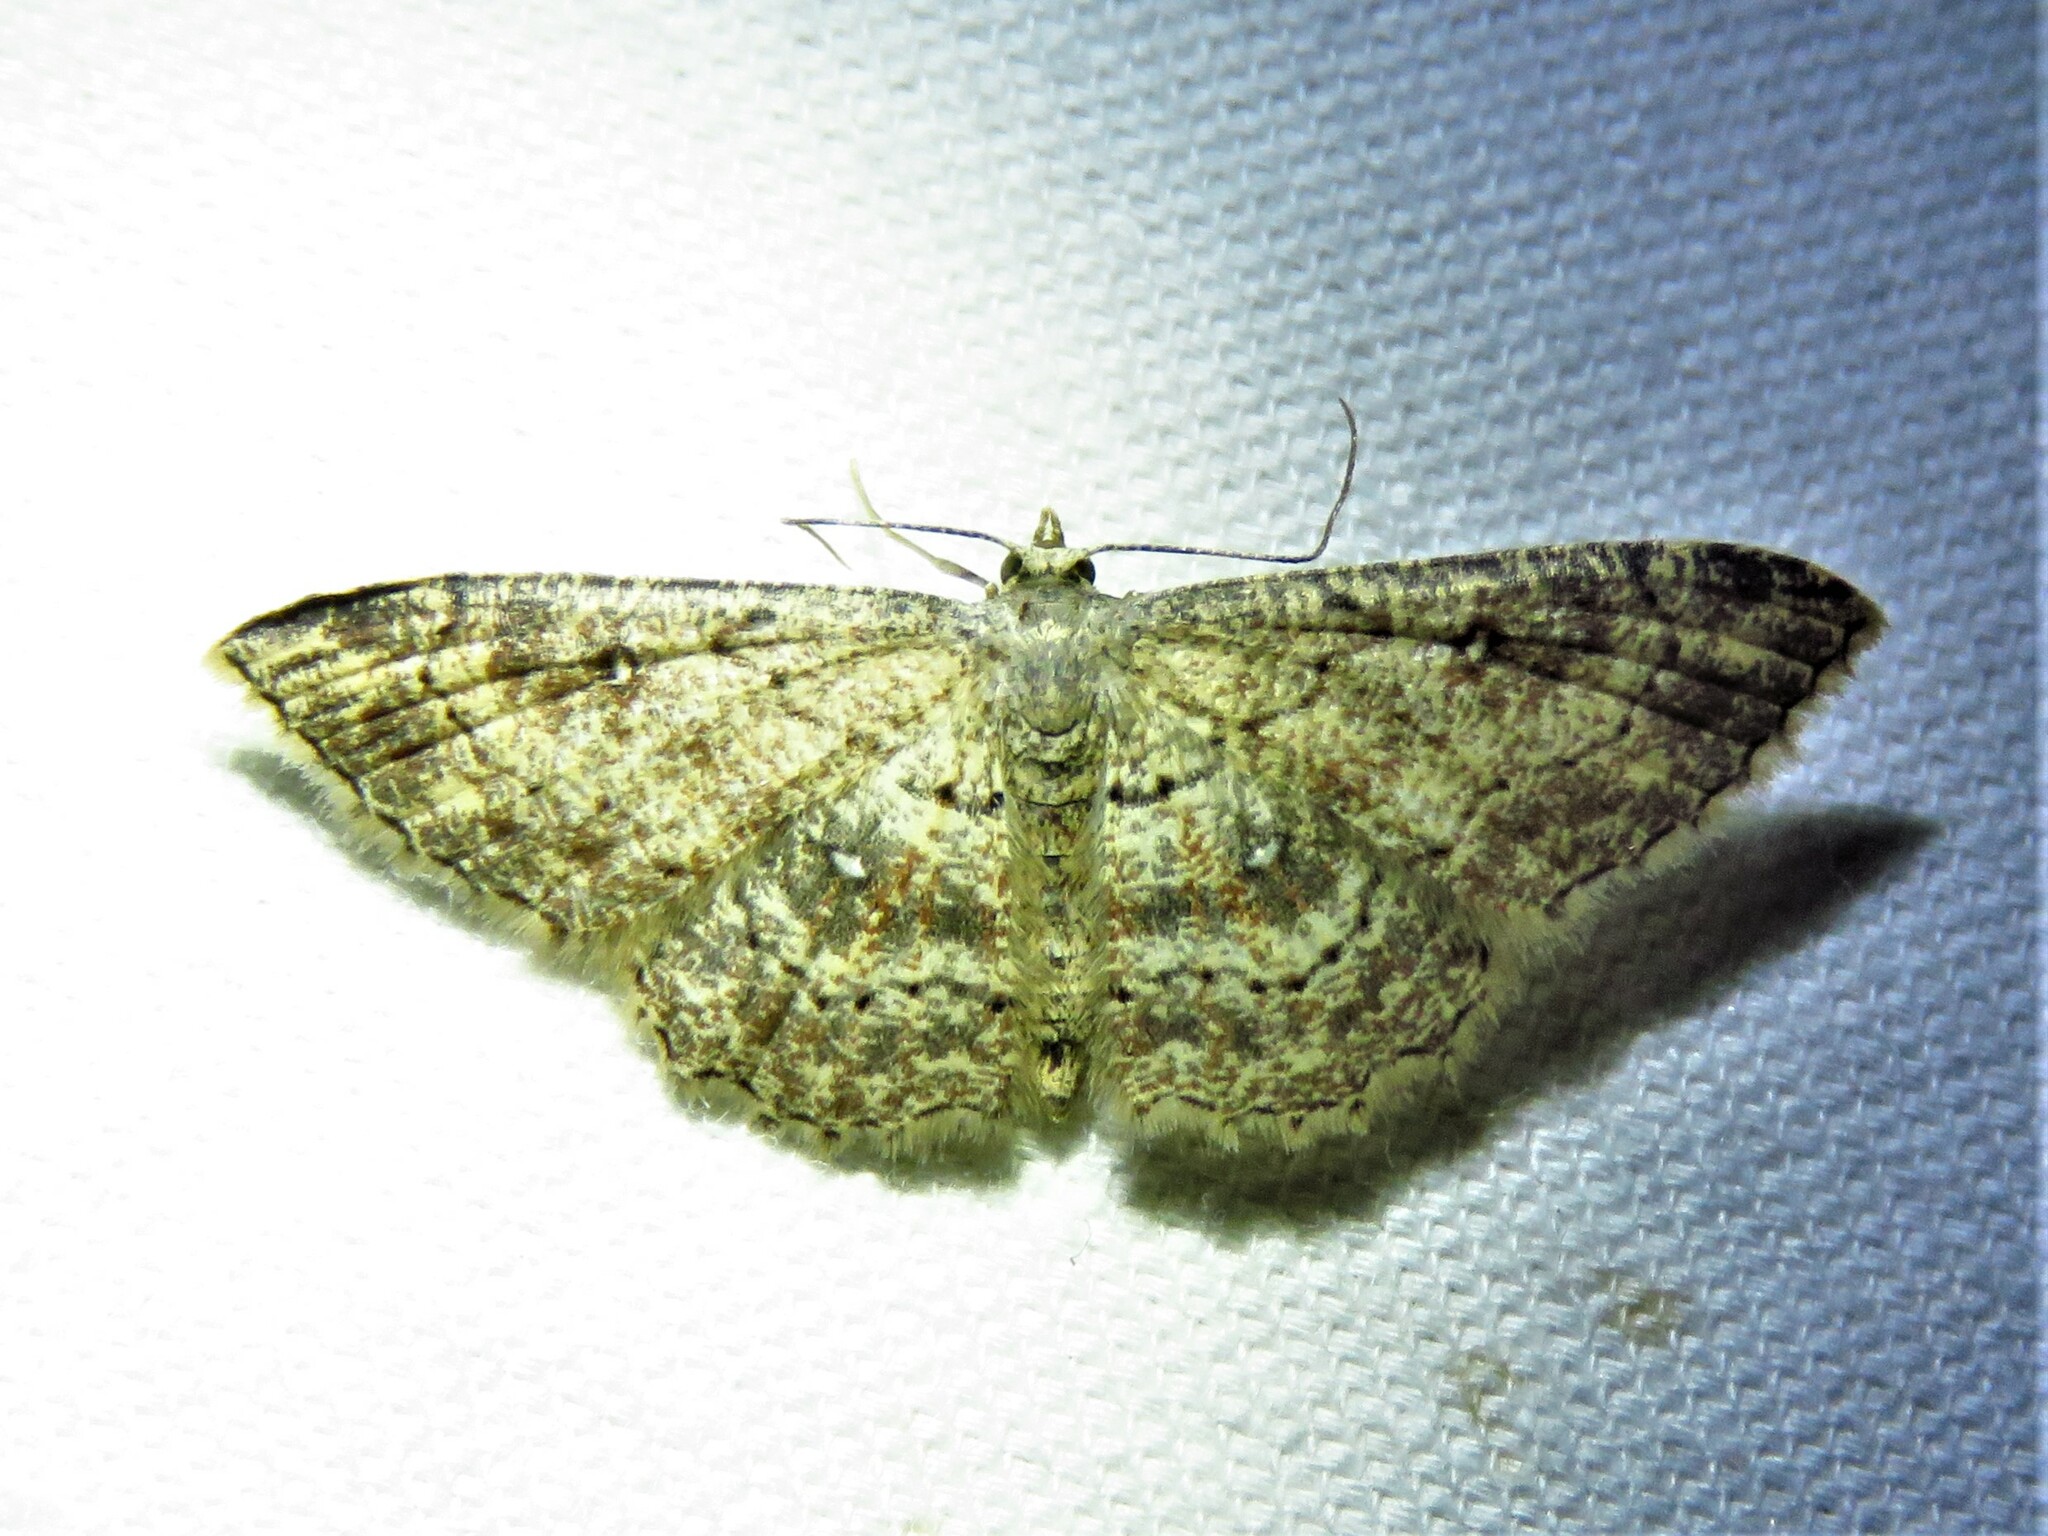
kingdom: Animalia
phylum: Arthropoda
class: Insecta
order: Lepidoptera
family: Geometridae
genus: Cyclophora
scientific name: Cyclophora nanaria
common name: Cankerworm
